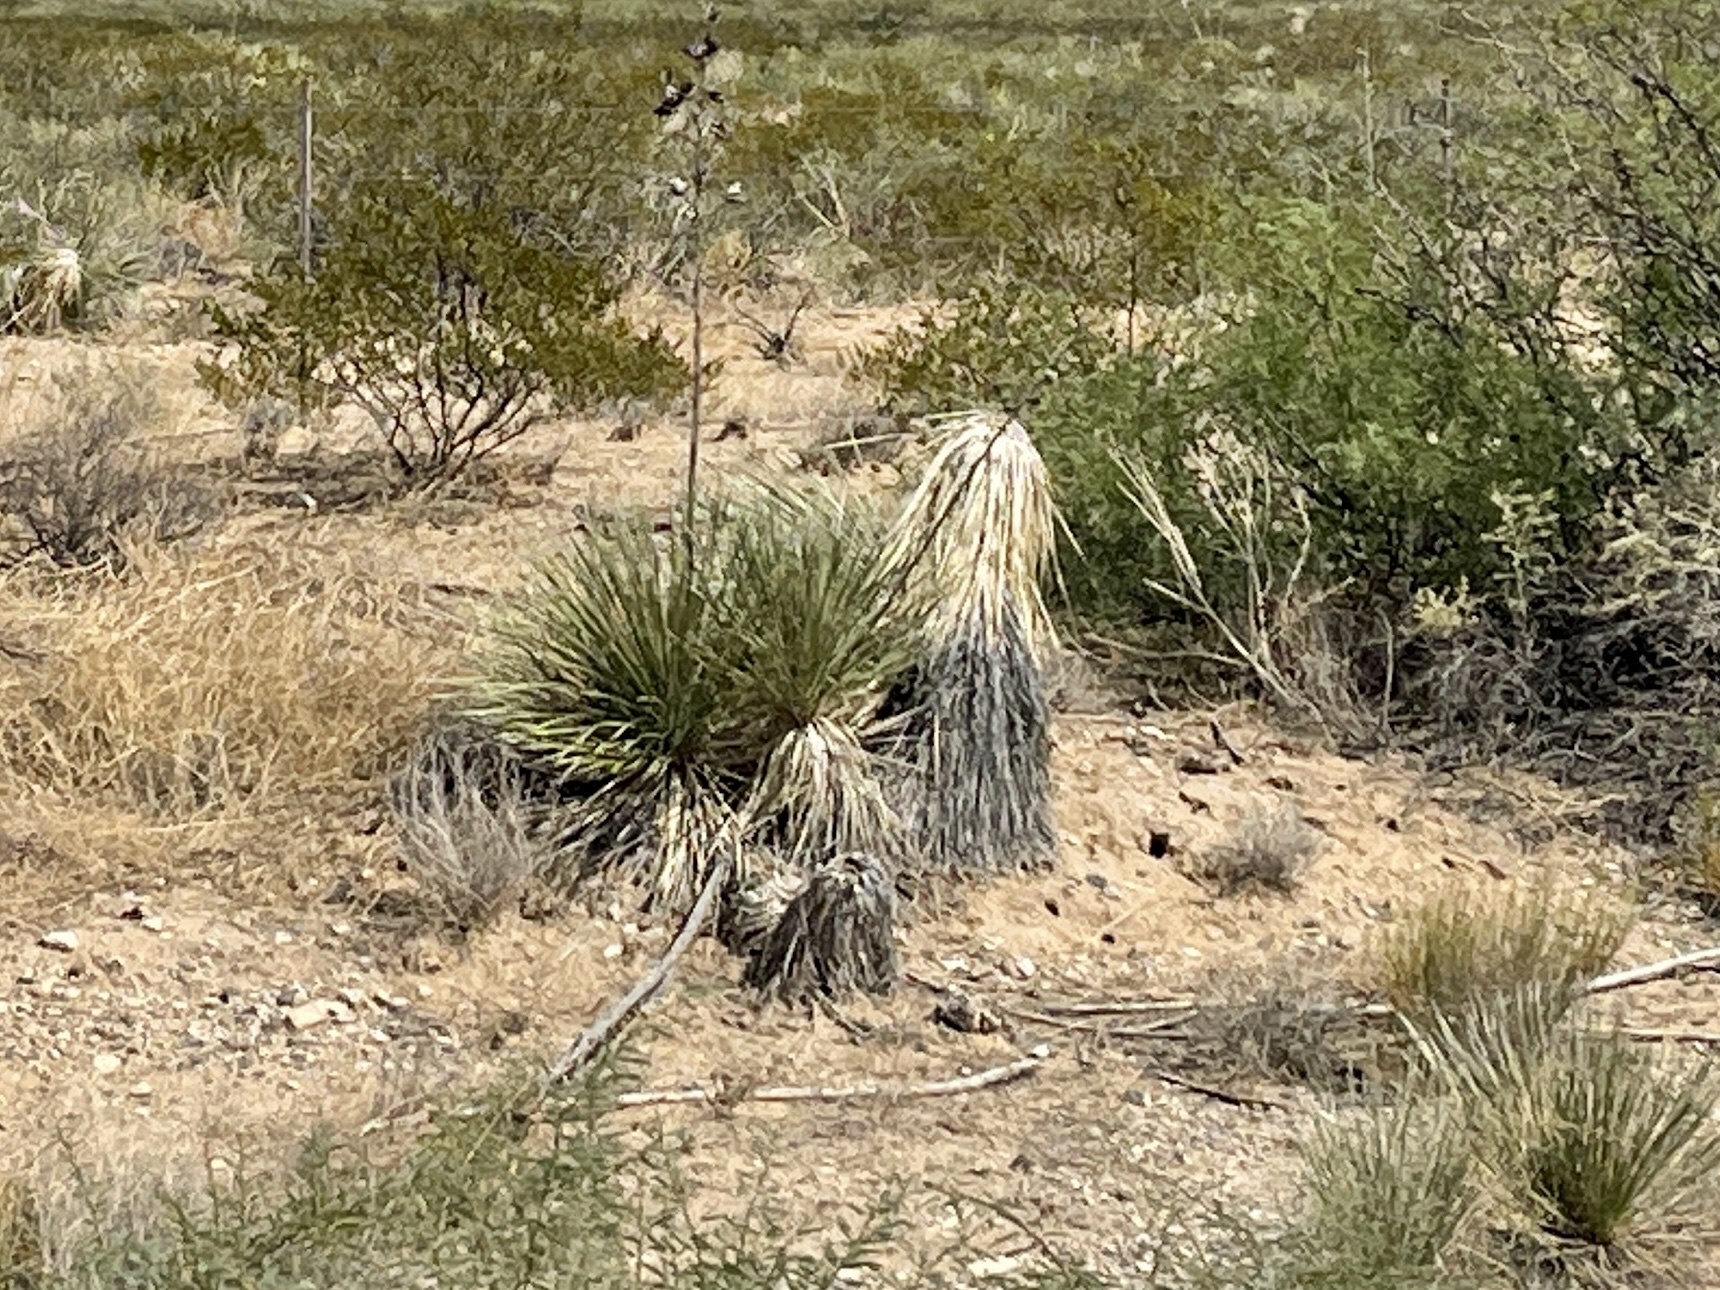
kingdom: Plantae
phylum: Tracheophyta
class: Liliopsida
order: Asparagales
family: Asparagaceae
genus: Yucca
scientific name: Yucca elata
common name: Palmella
